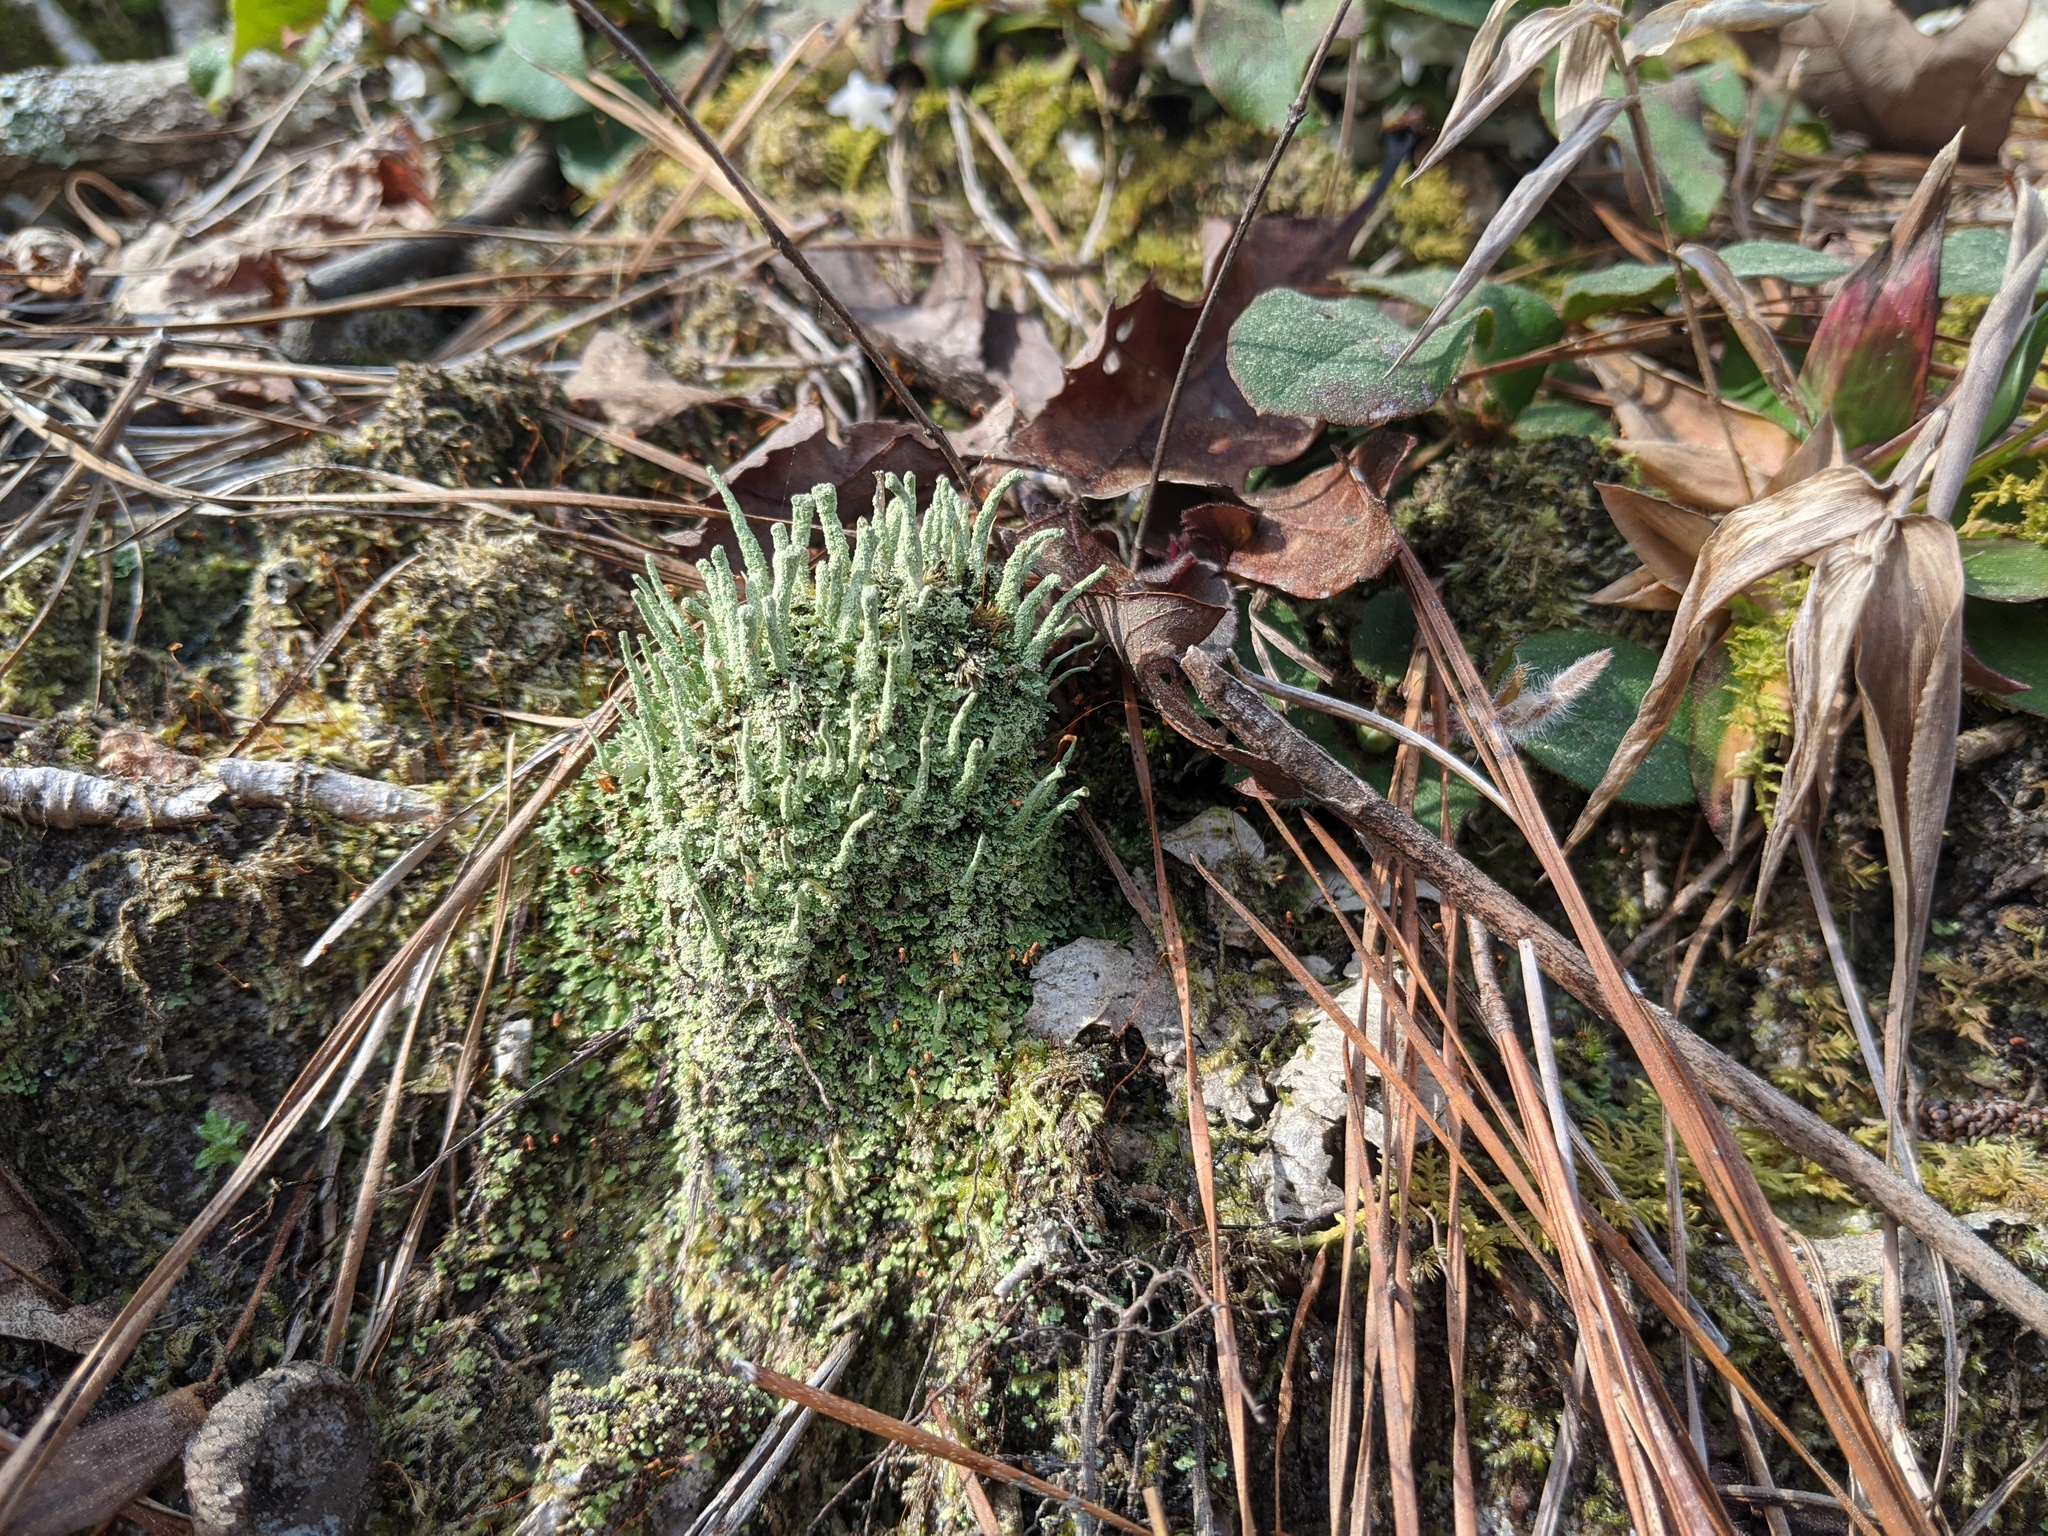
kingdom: Fungi
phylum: Ascomycota
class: Lecanoromycetes
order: Lecanorales
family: Cladoniaceae
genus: Cladonia
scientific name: Cladonia coniocraea
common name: Common powderhorn
